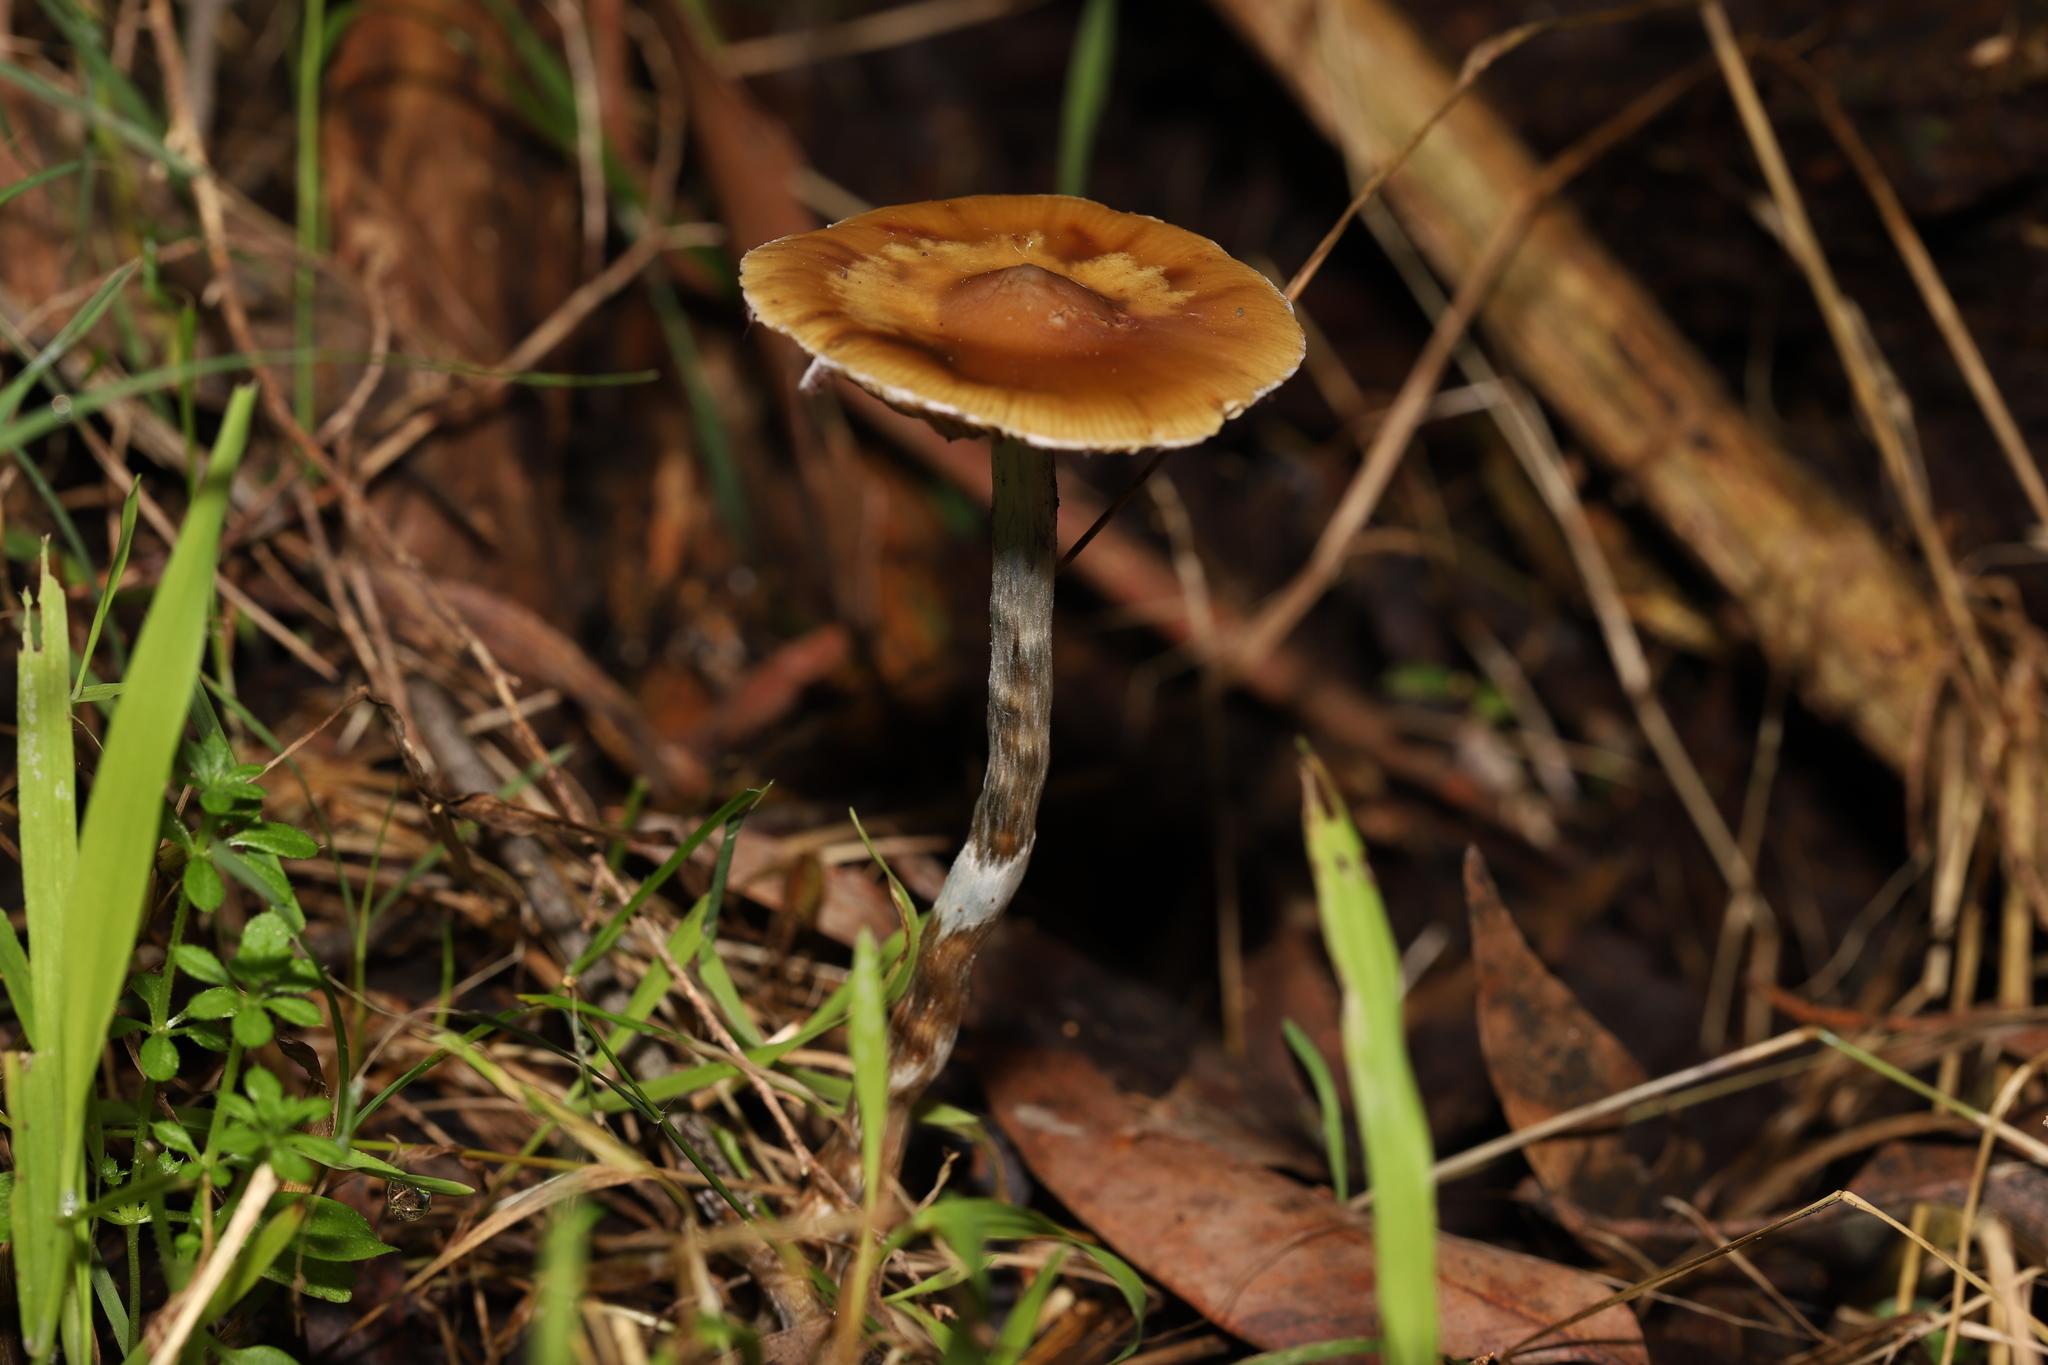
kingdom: Fungi
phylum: Basidiomycota
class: Agaricomycetes
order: Agaricales
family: Hymenogastraceae
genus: Psilocybe
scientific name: Psilocybe subaeruginosa
